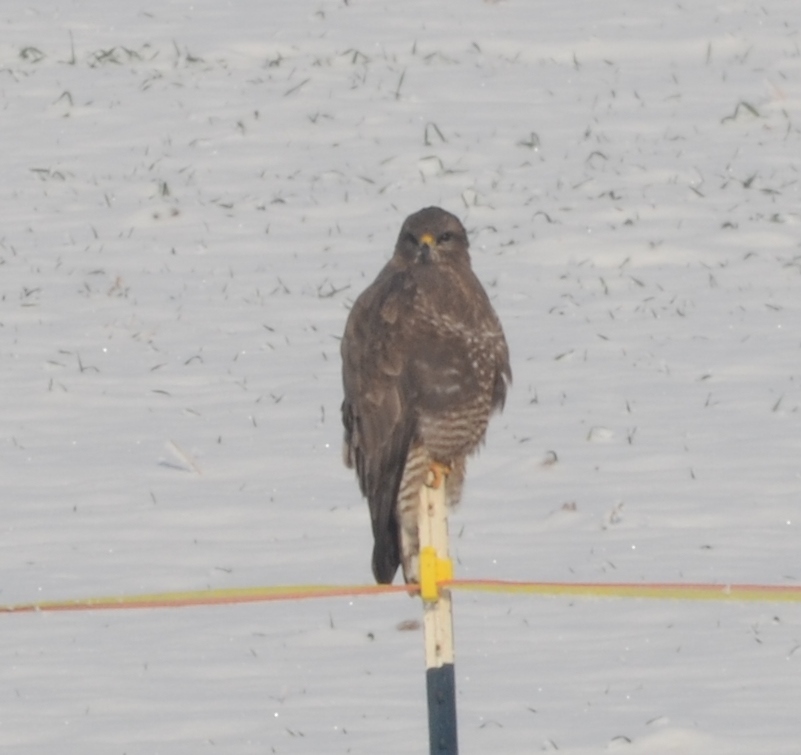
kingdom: Animalia
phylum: Chordata
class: Aves
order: Accipitriformes
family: Accipitridae
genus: Buteo
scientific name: Buteo buteo
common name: Common buzzard
